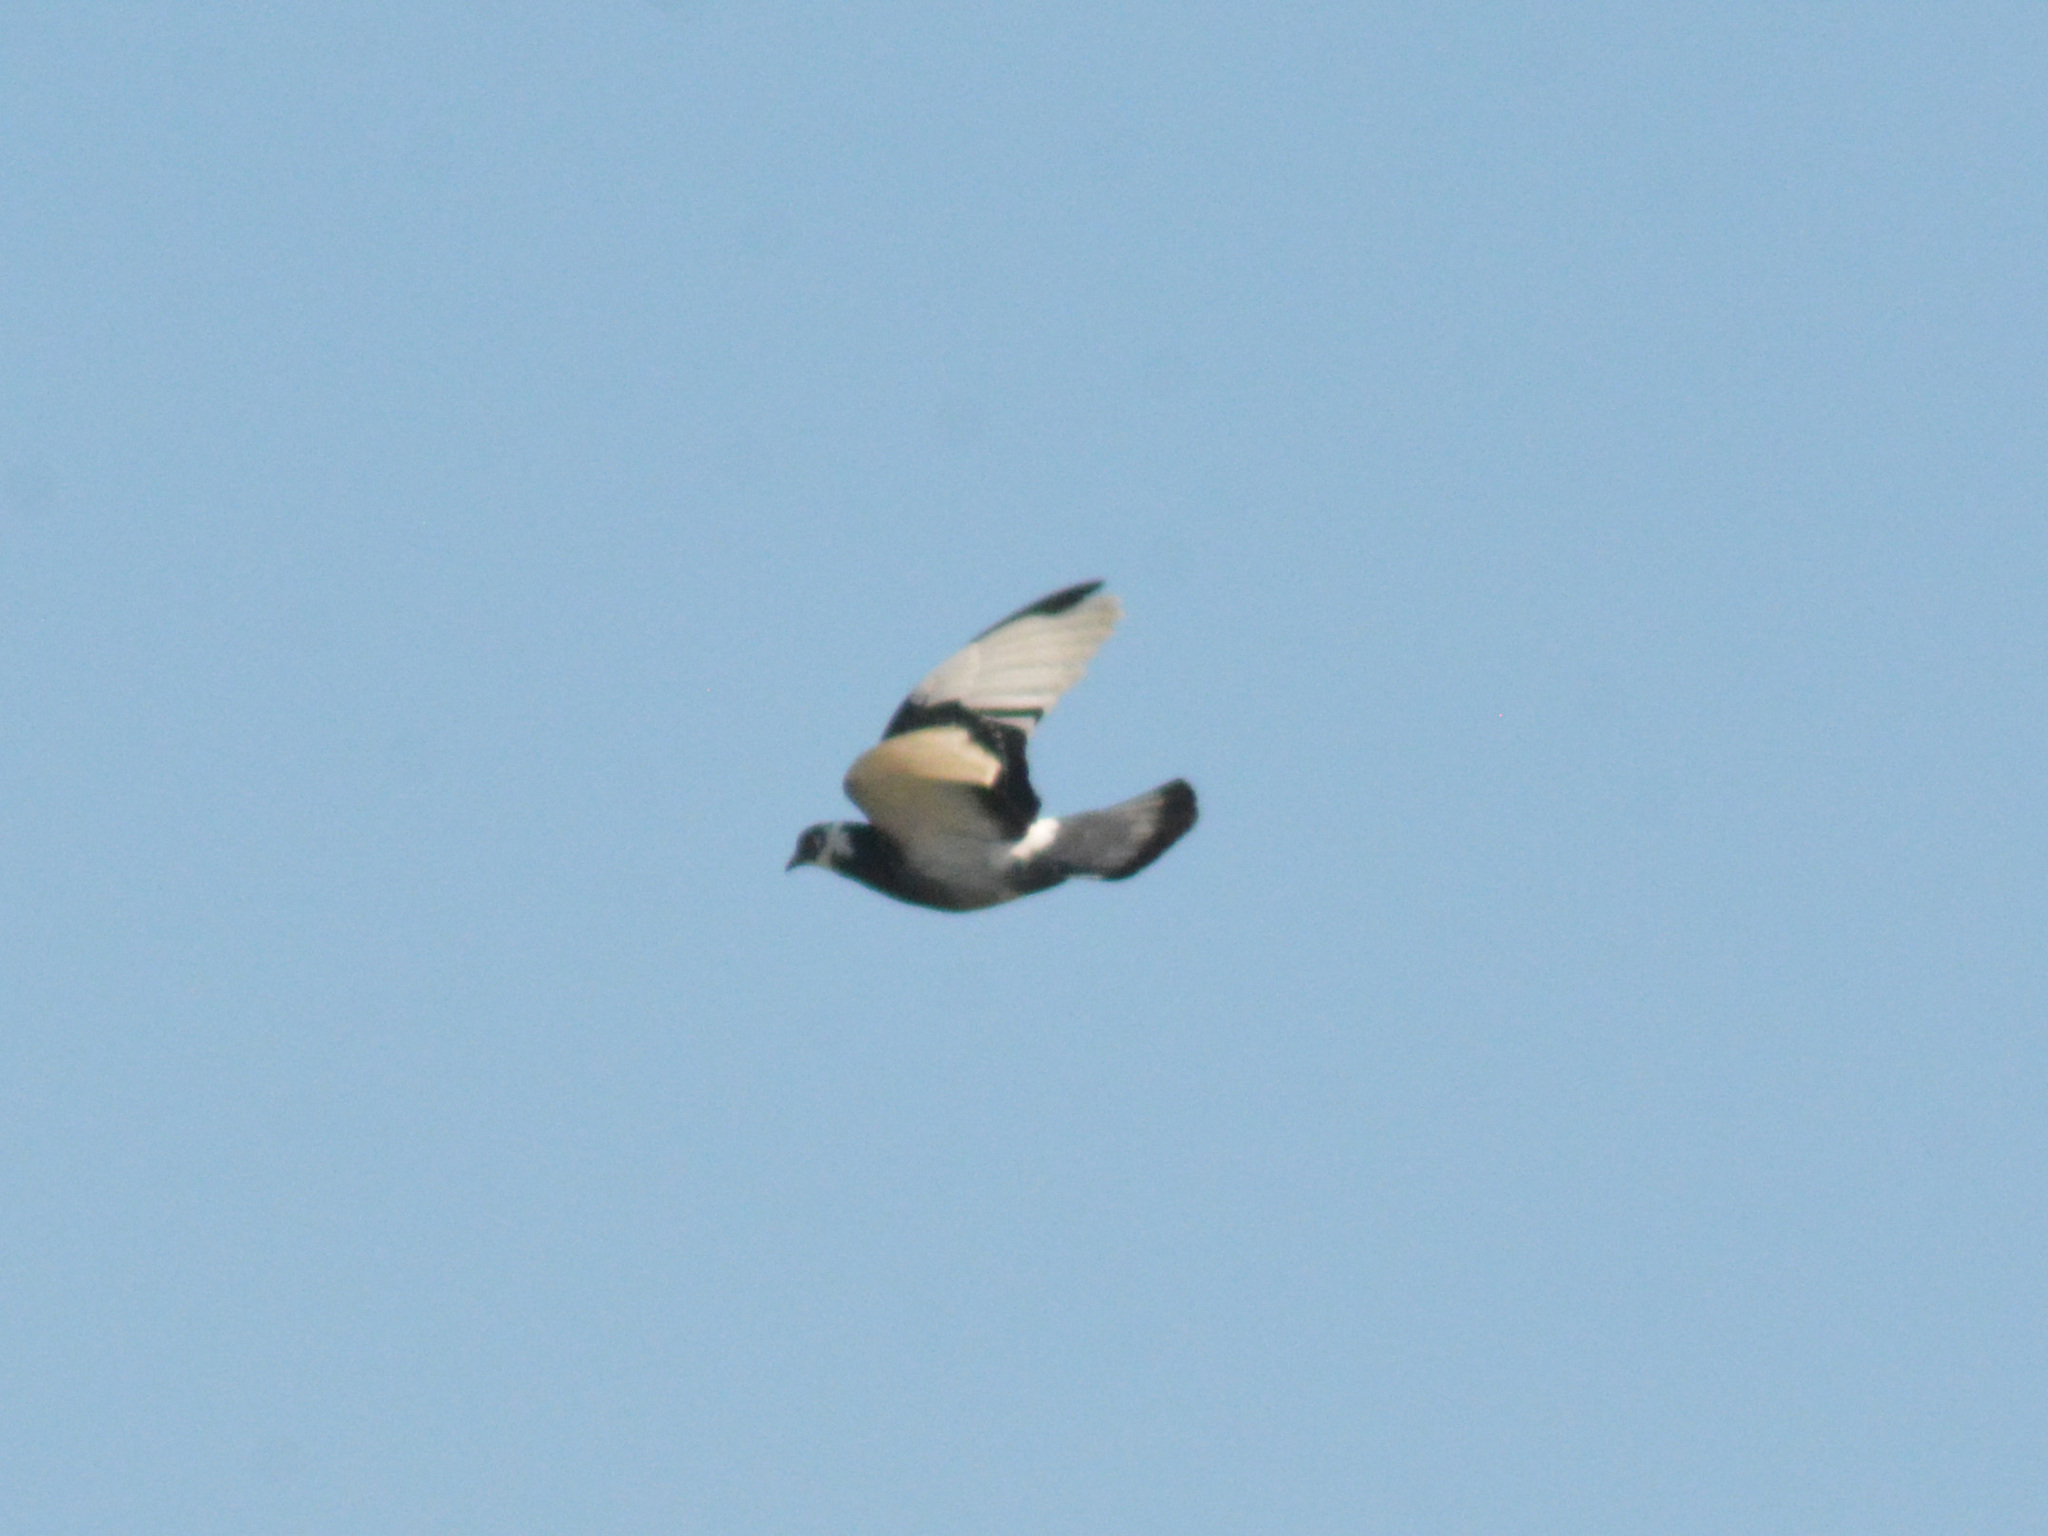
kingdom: Animalia
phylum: Chordata
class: Aves
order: Columbiformes
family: Columbidae
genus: Columba
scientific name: Columba livia
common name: Rock pigeon
